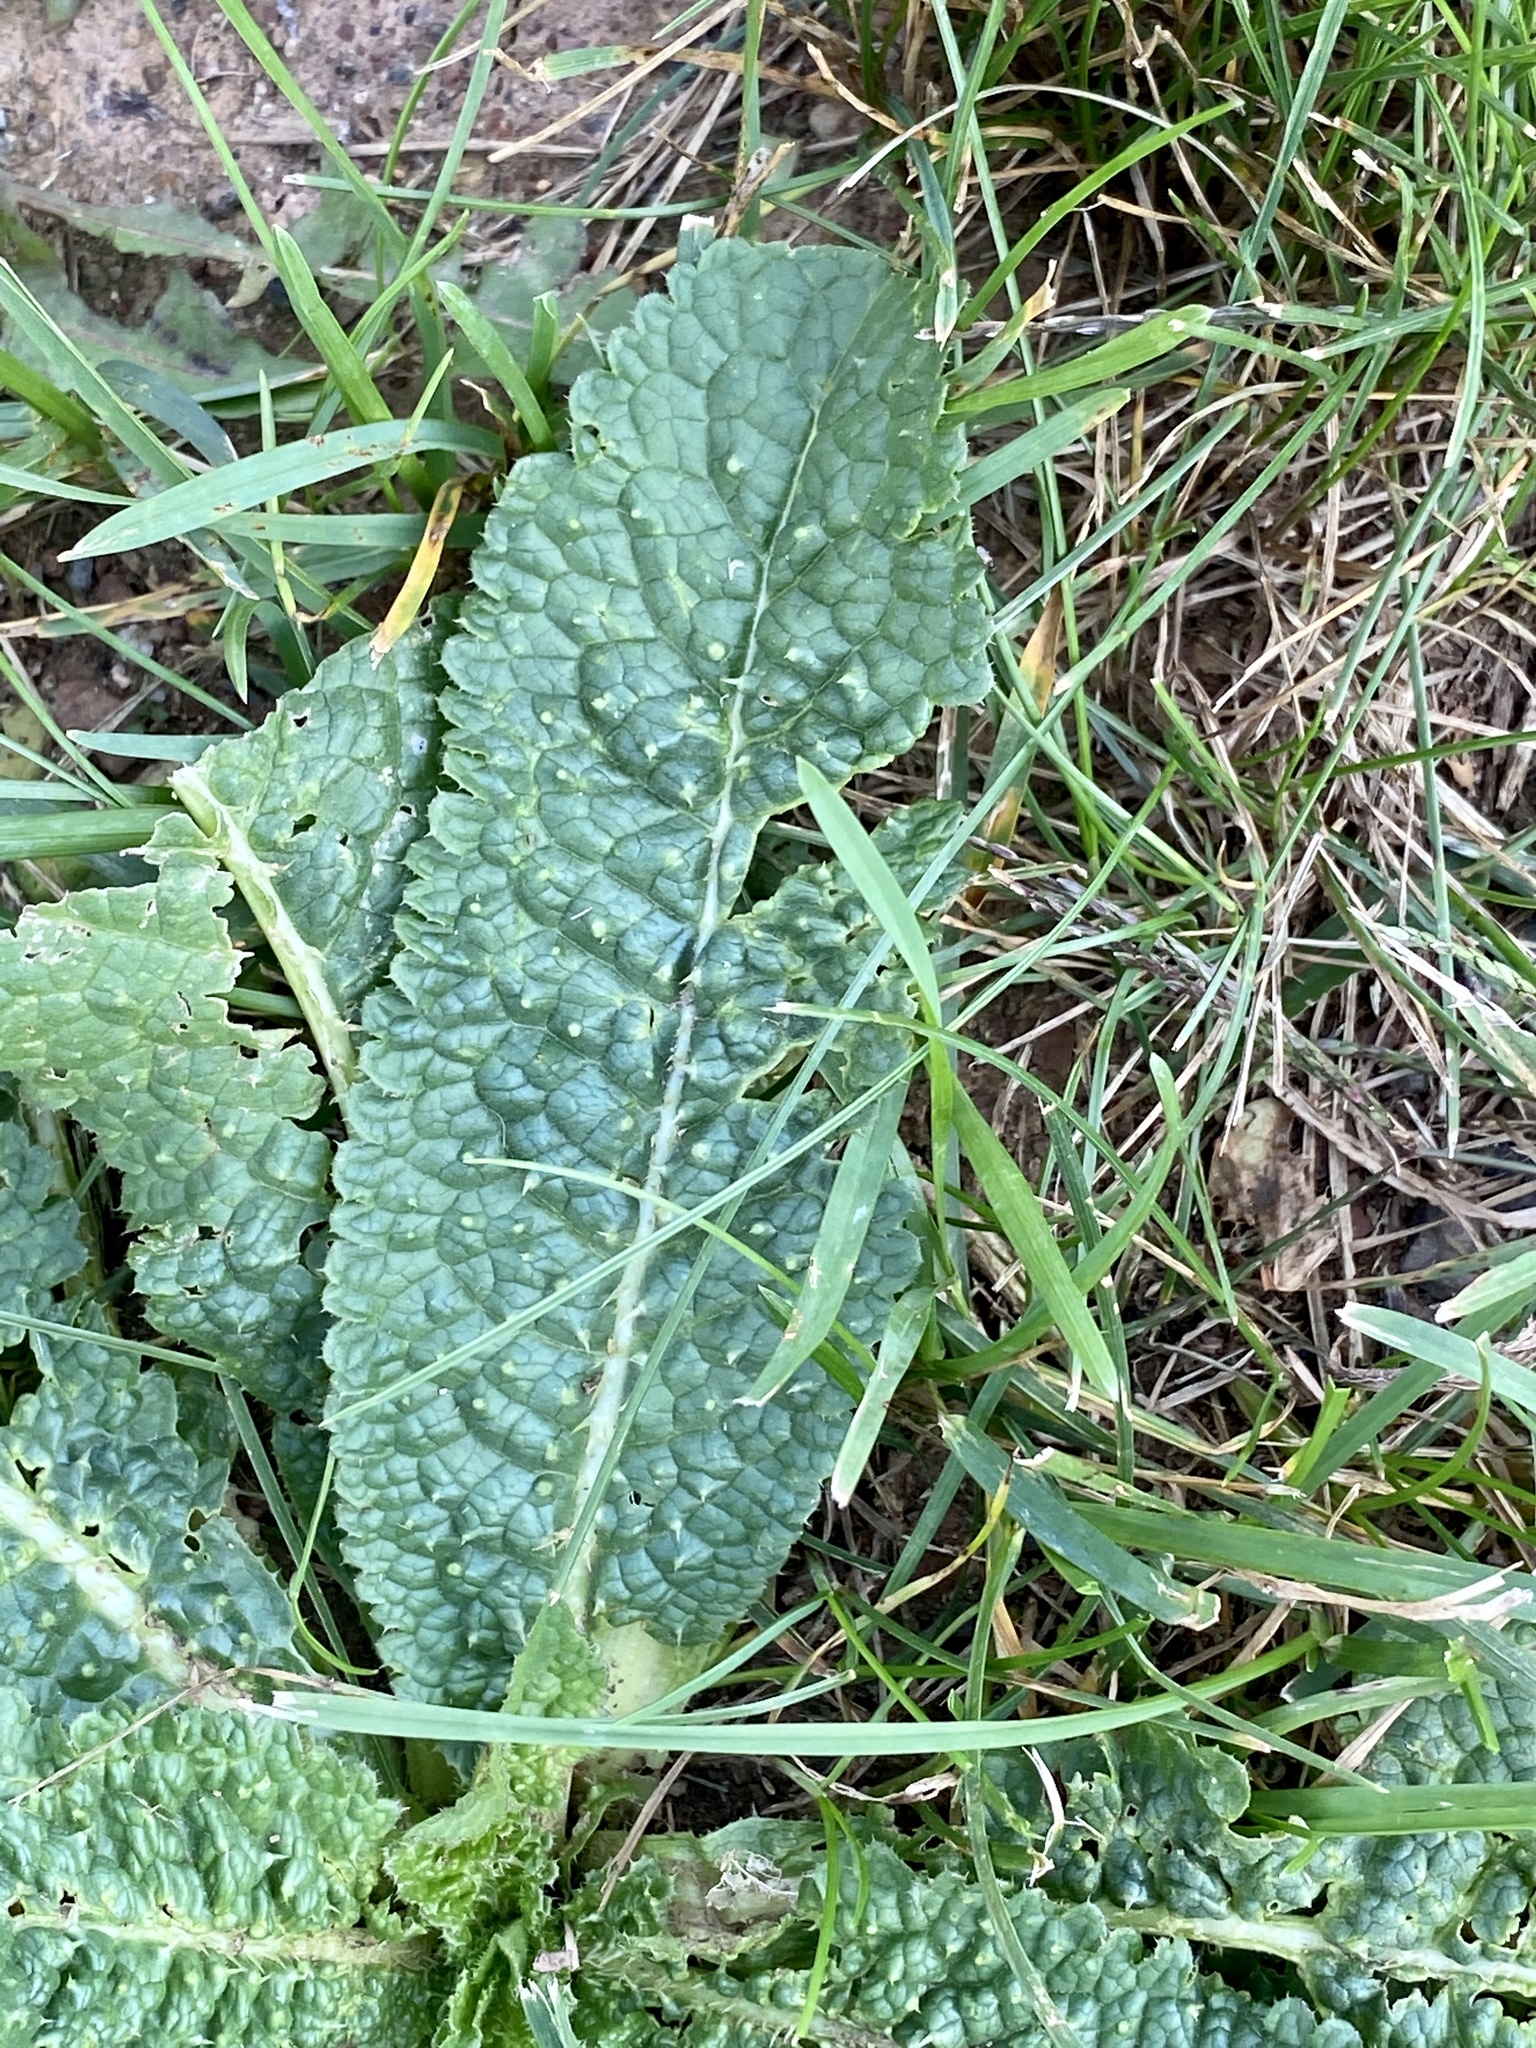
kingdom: Plantae
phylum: Tracheophyta
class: Magnoliopsida
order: Dipsacales
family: Caprifoliaceae
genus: Dipsacus
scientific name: Dipsacus fullonum
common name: Teasel
